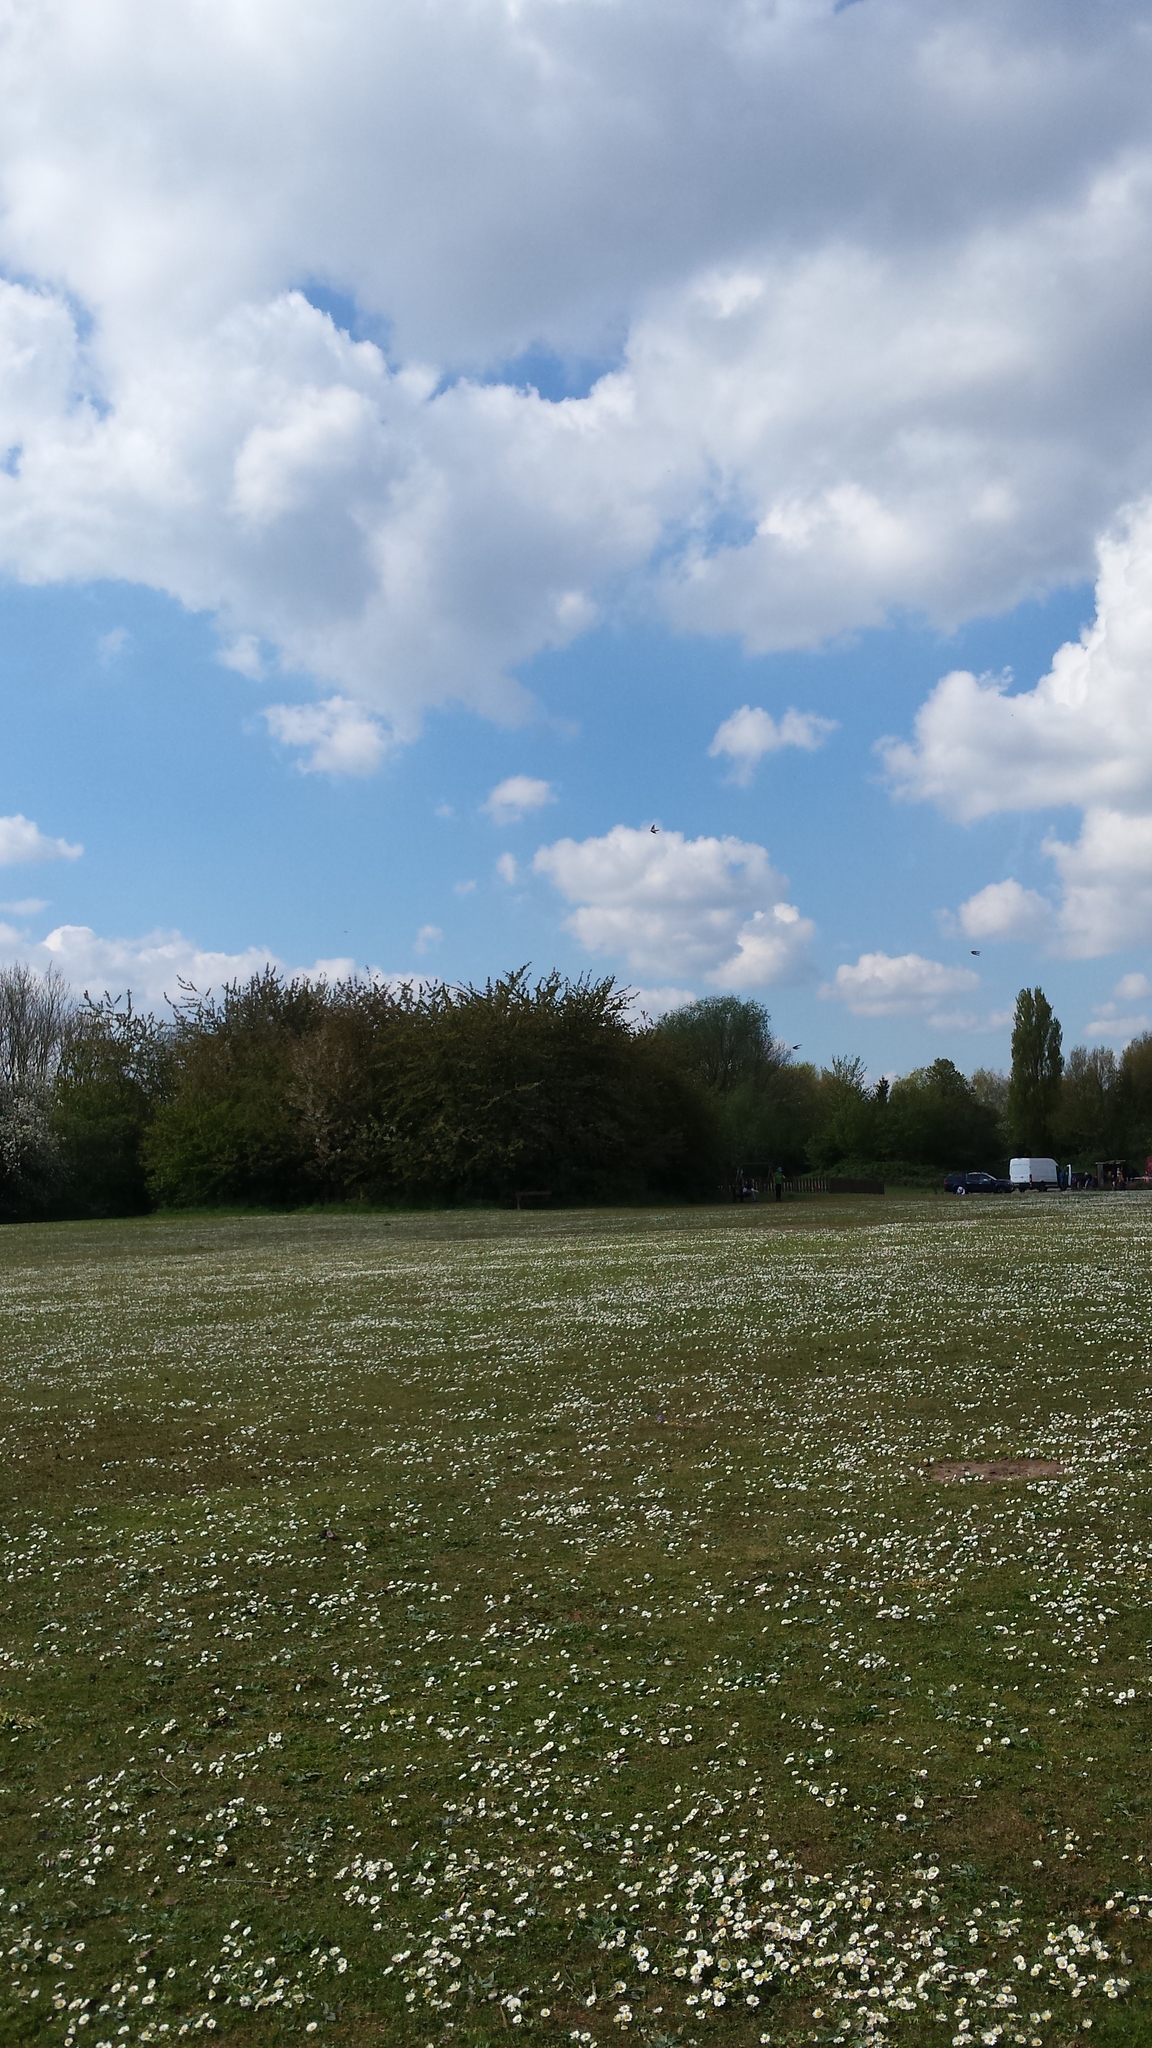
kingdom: Plantae
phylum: Tracheophyta
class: Magnoliopsida
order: Asterales
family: Asteraceae
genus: Bellis
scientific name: Bellis perennis
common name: Lawndaisy
